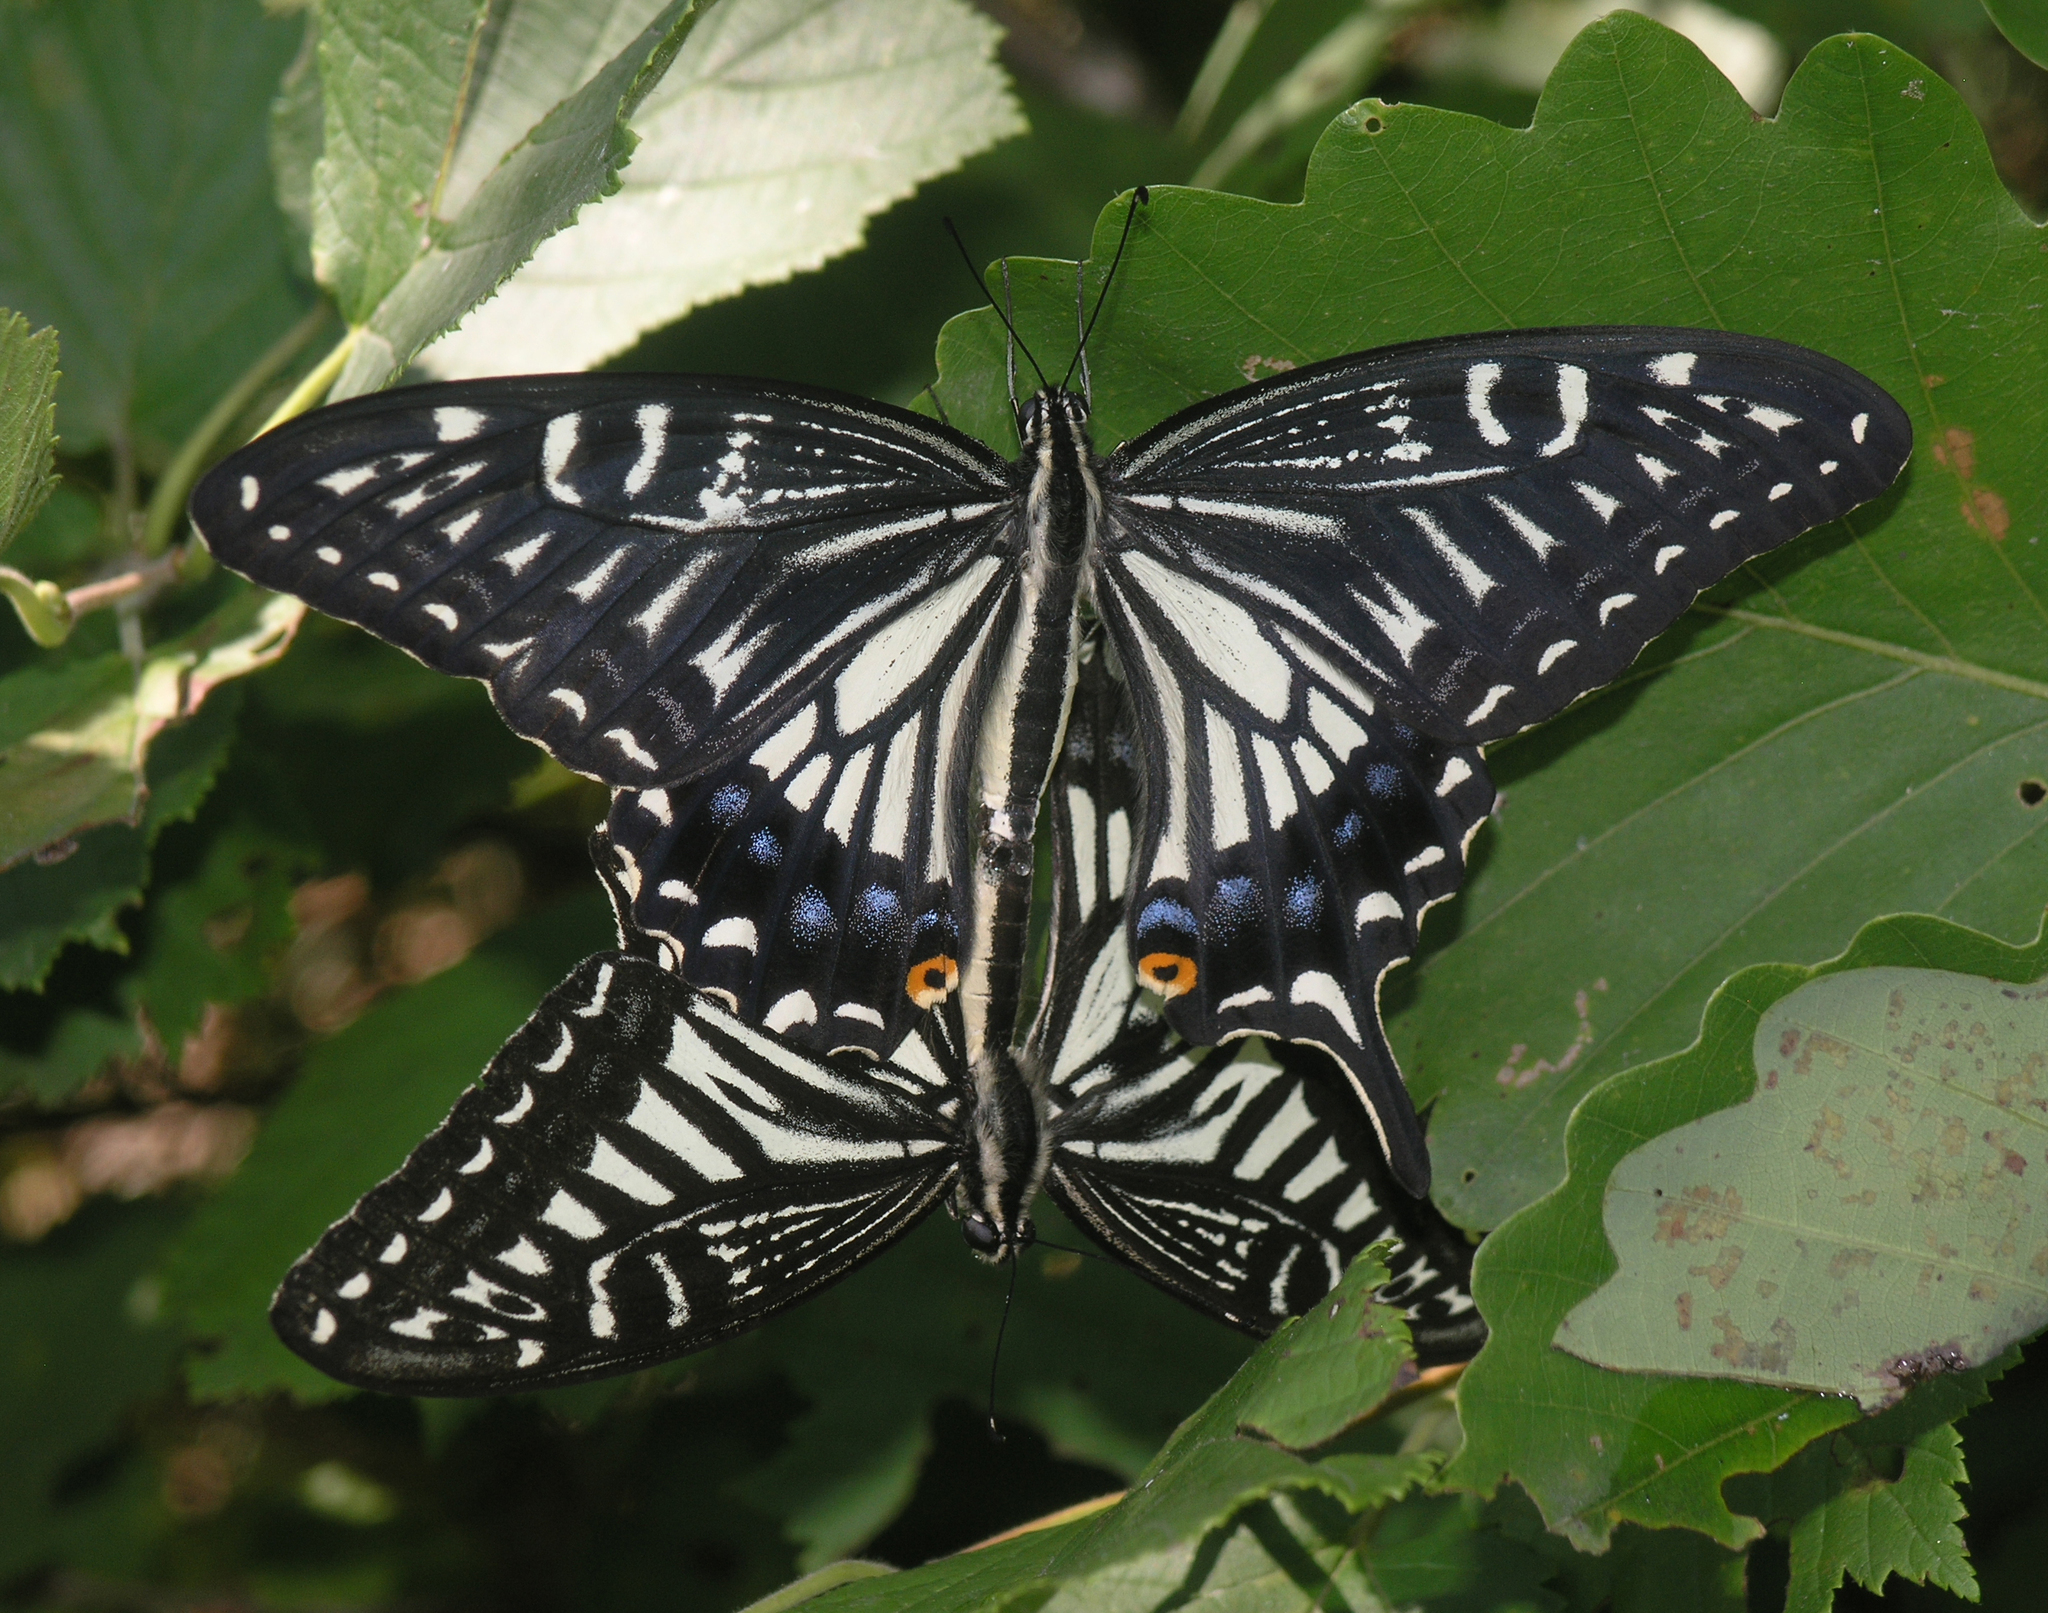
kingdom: Animalia
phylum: Arthropoda
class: Insecta
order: Lepidoptera
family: Papilionidae
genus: Papilio
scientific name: Papilio xuthus
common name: Asian swallowtail
